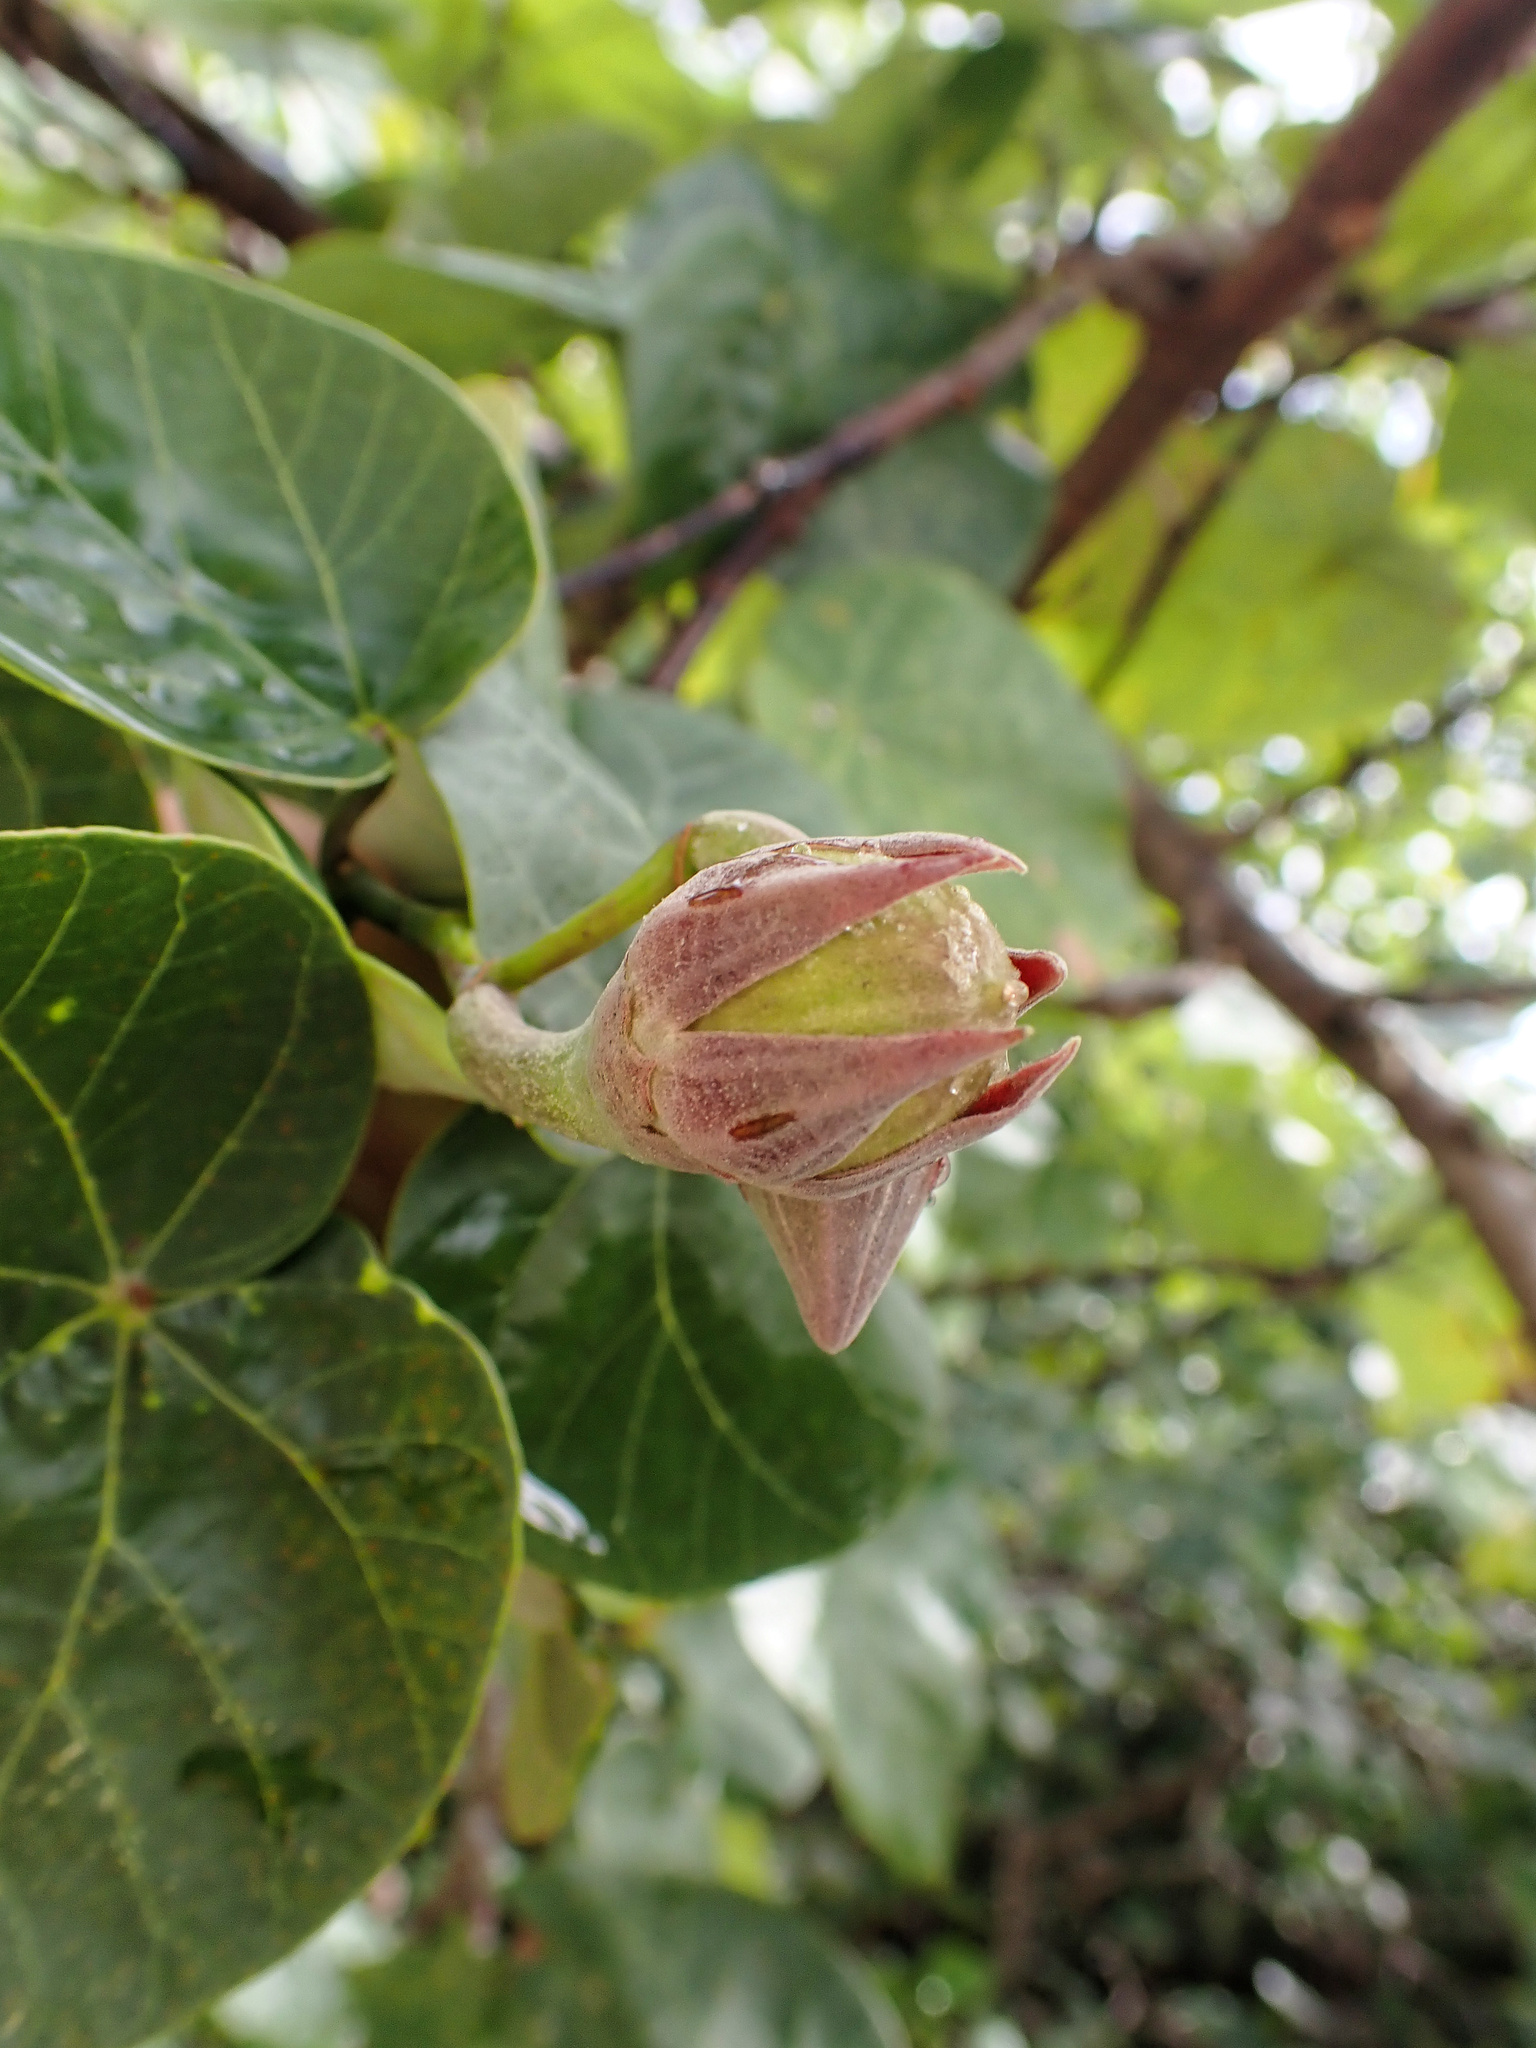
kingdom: Plantae
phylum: Tracheophyta
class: Magnoliopsida
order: Malvales
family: Malvaceae
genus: Talipariti
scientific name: Talipariti tiliaceum
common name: Sea hibiscus
